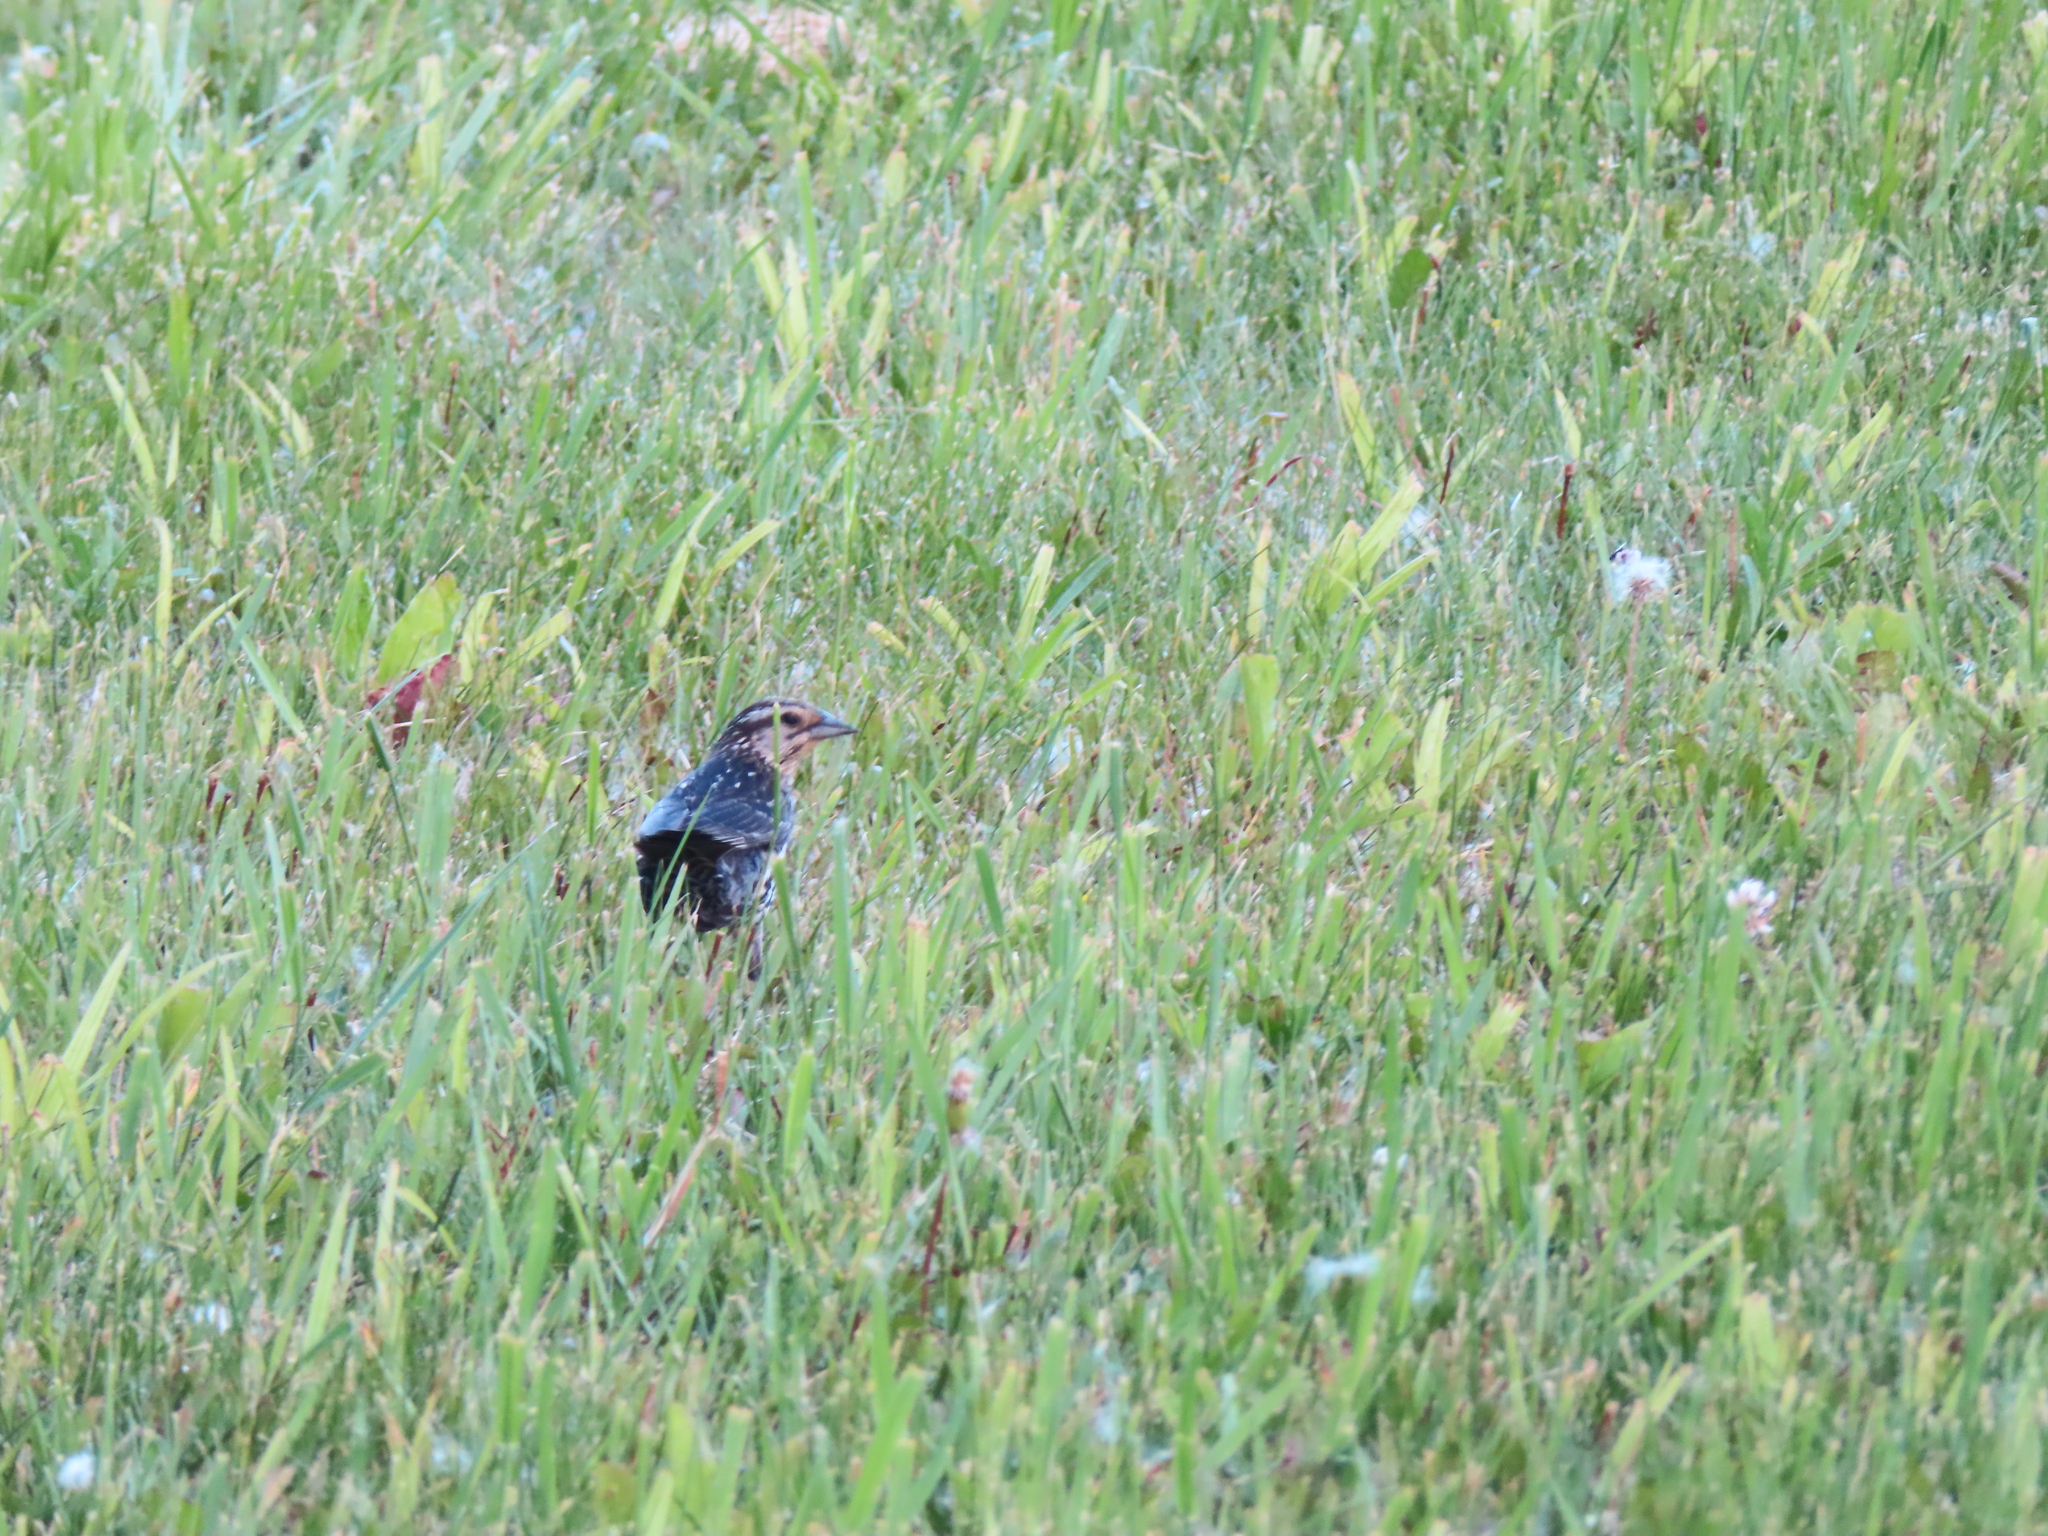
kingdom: Animalia
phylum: Chordata
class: Aves
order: Passeriformes
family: Icteridae
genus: Agelaius
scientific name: Agelaius phoeniceus
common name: Red-winged blackbird
